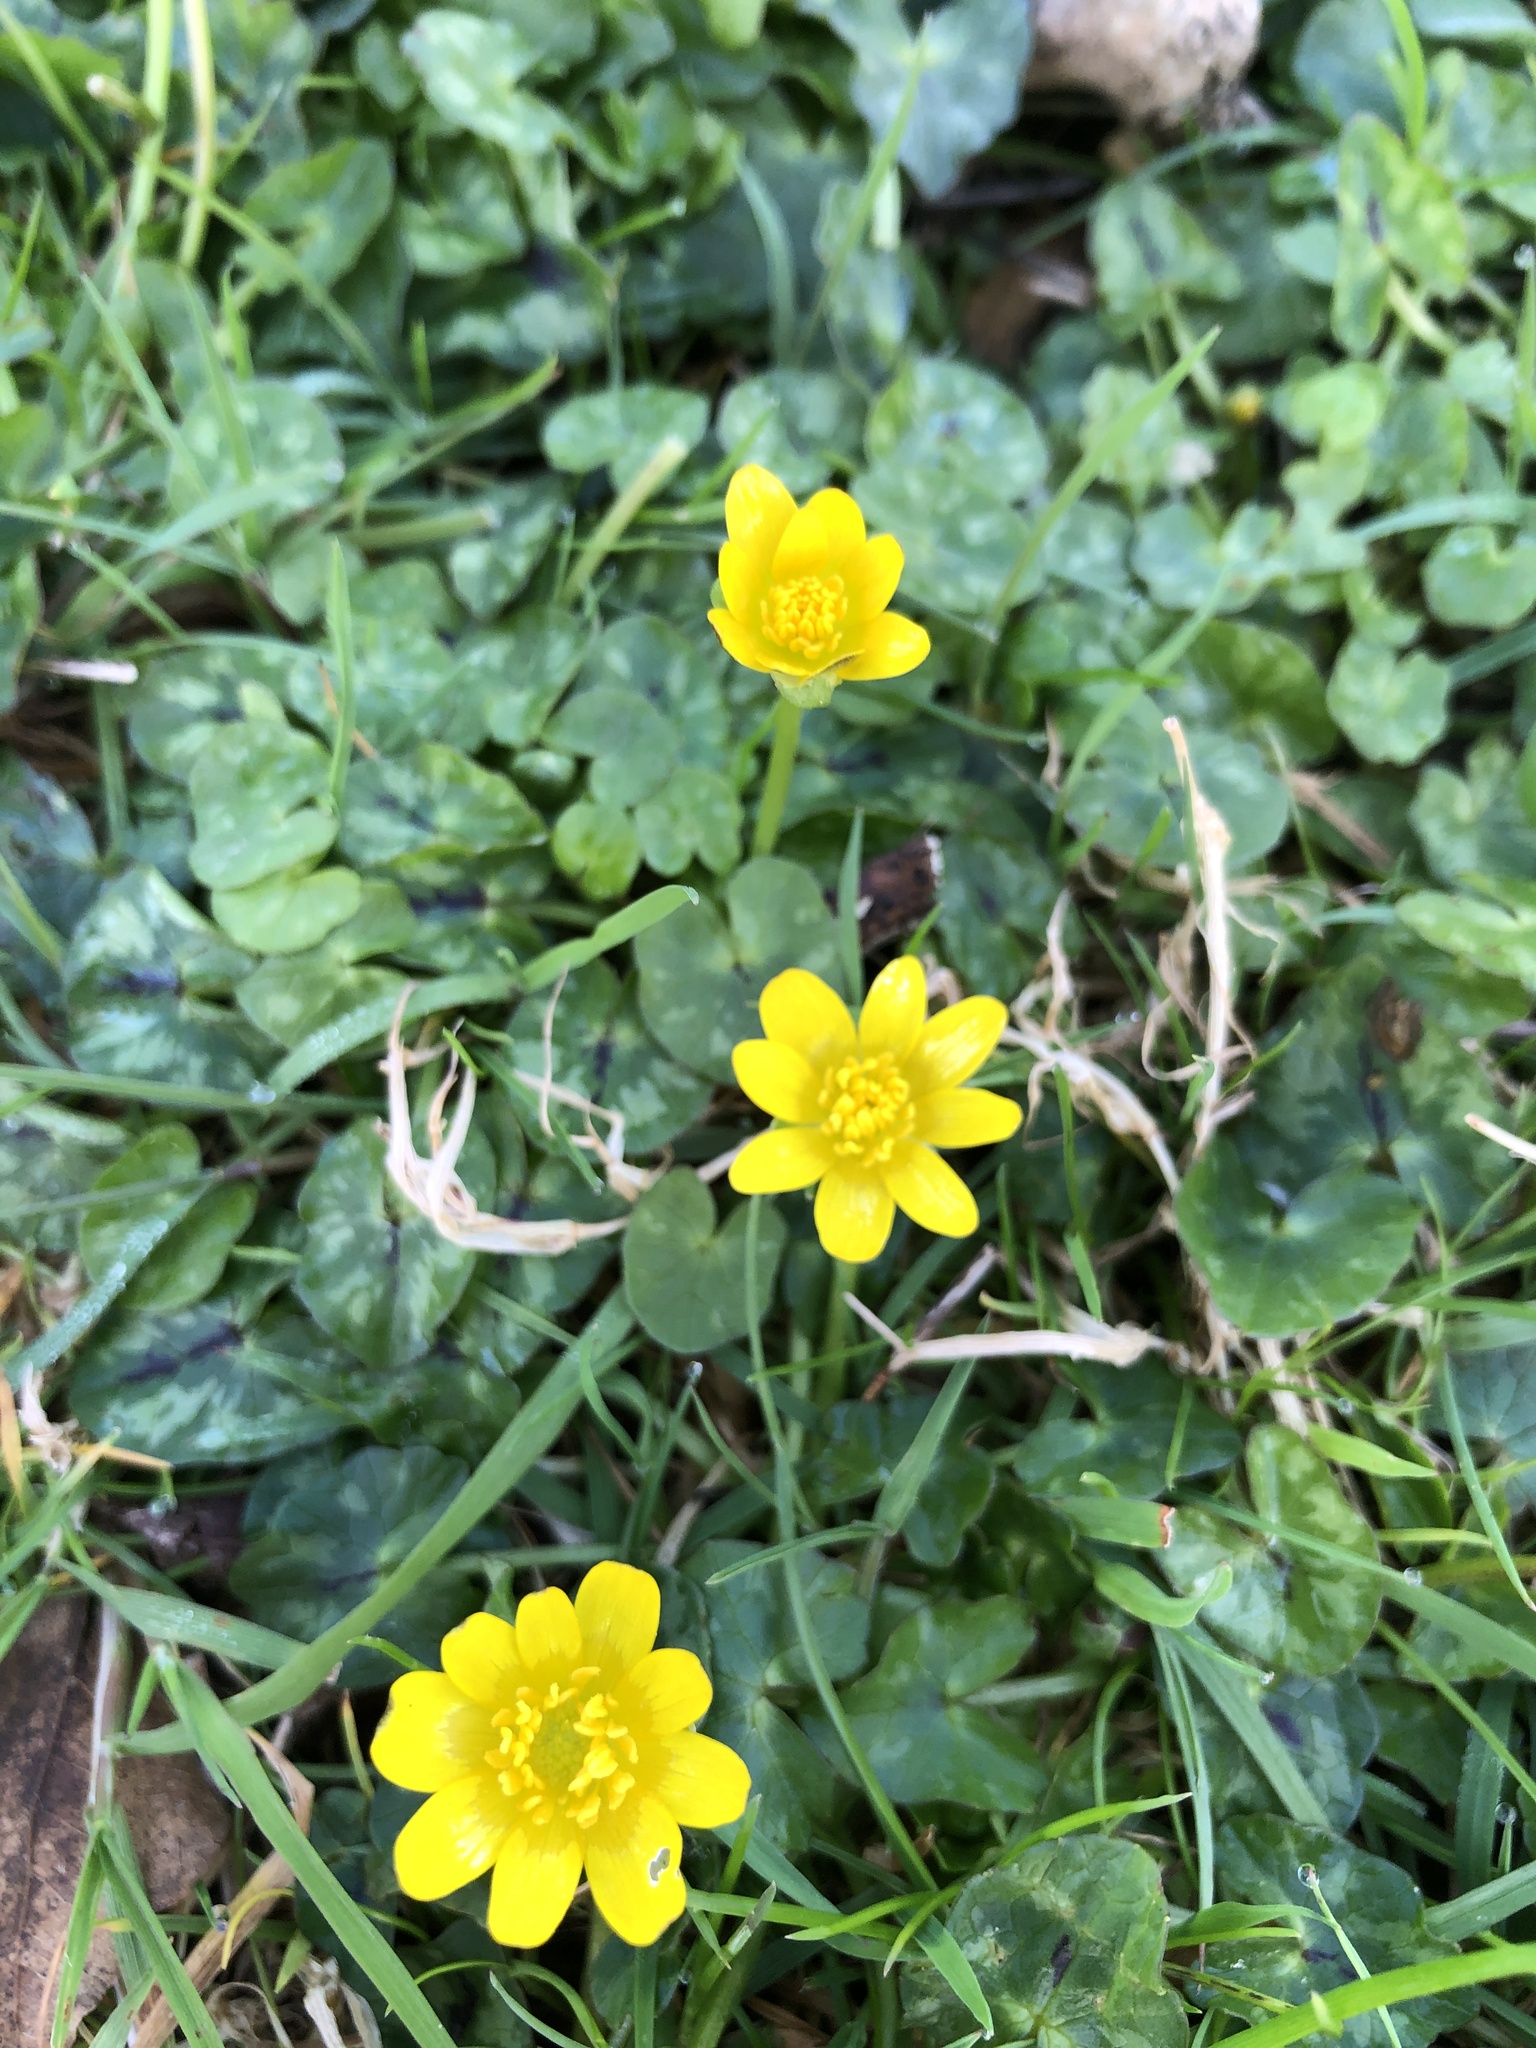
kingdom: Plantae
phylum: Tracheophyta
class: Magnoliopsida
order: Ranunculales
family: Ranunculaceae
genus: Ficaria
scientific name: Ficaria verna
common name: Lesser celandine
